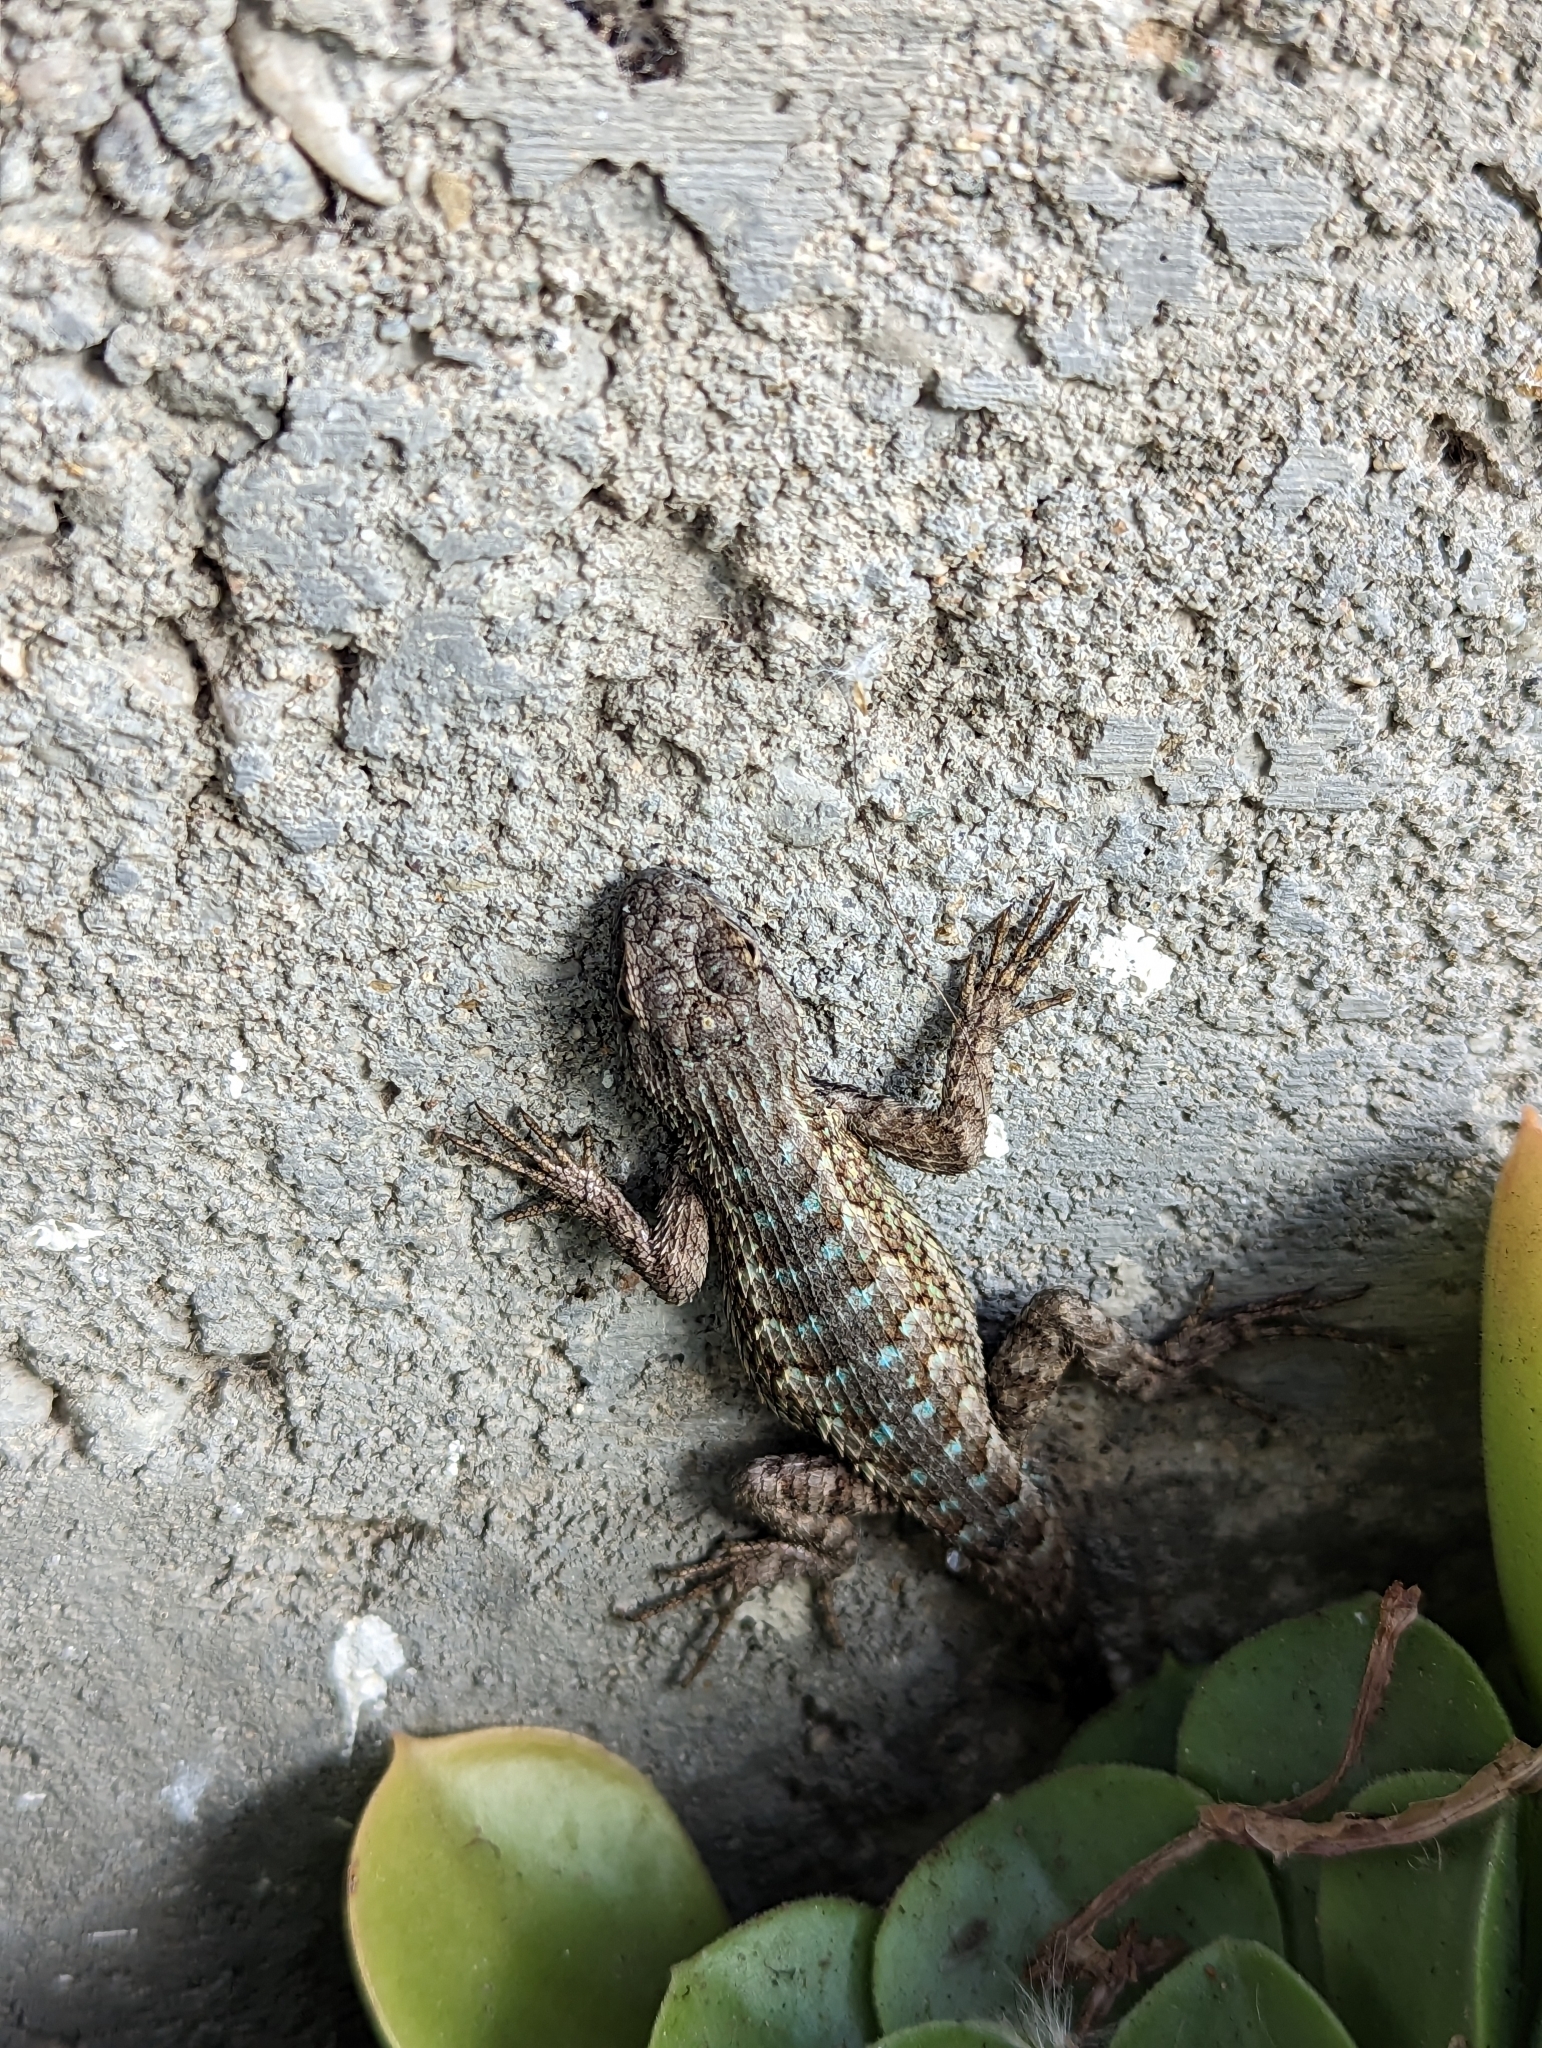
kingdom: Animalia
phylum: Chordata
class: Squamata
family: Phrynosomatidae
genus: Sceloporus
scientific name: Sceloporus occidentalis
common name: Western fence lizard
